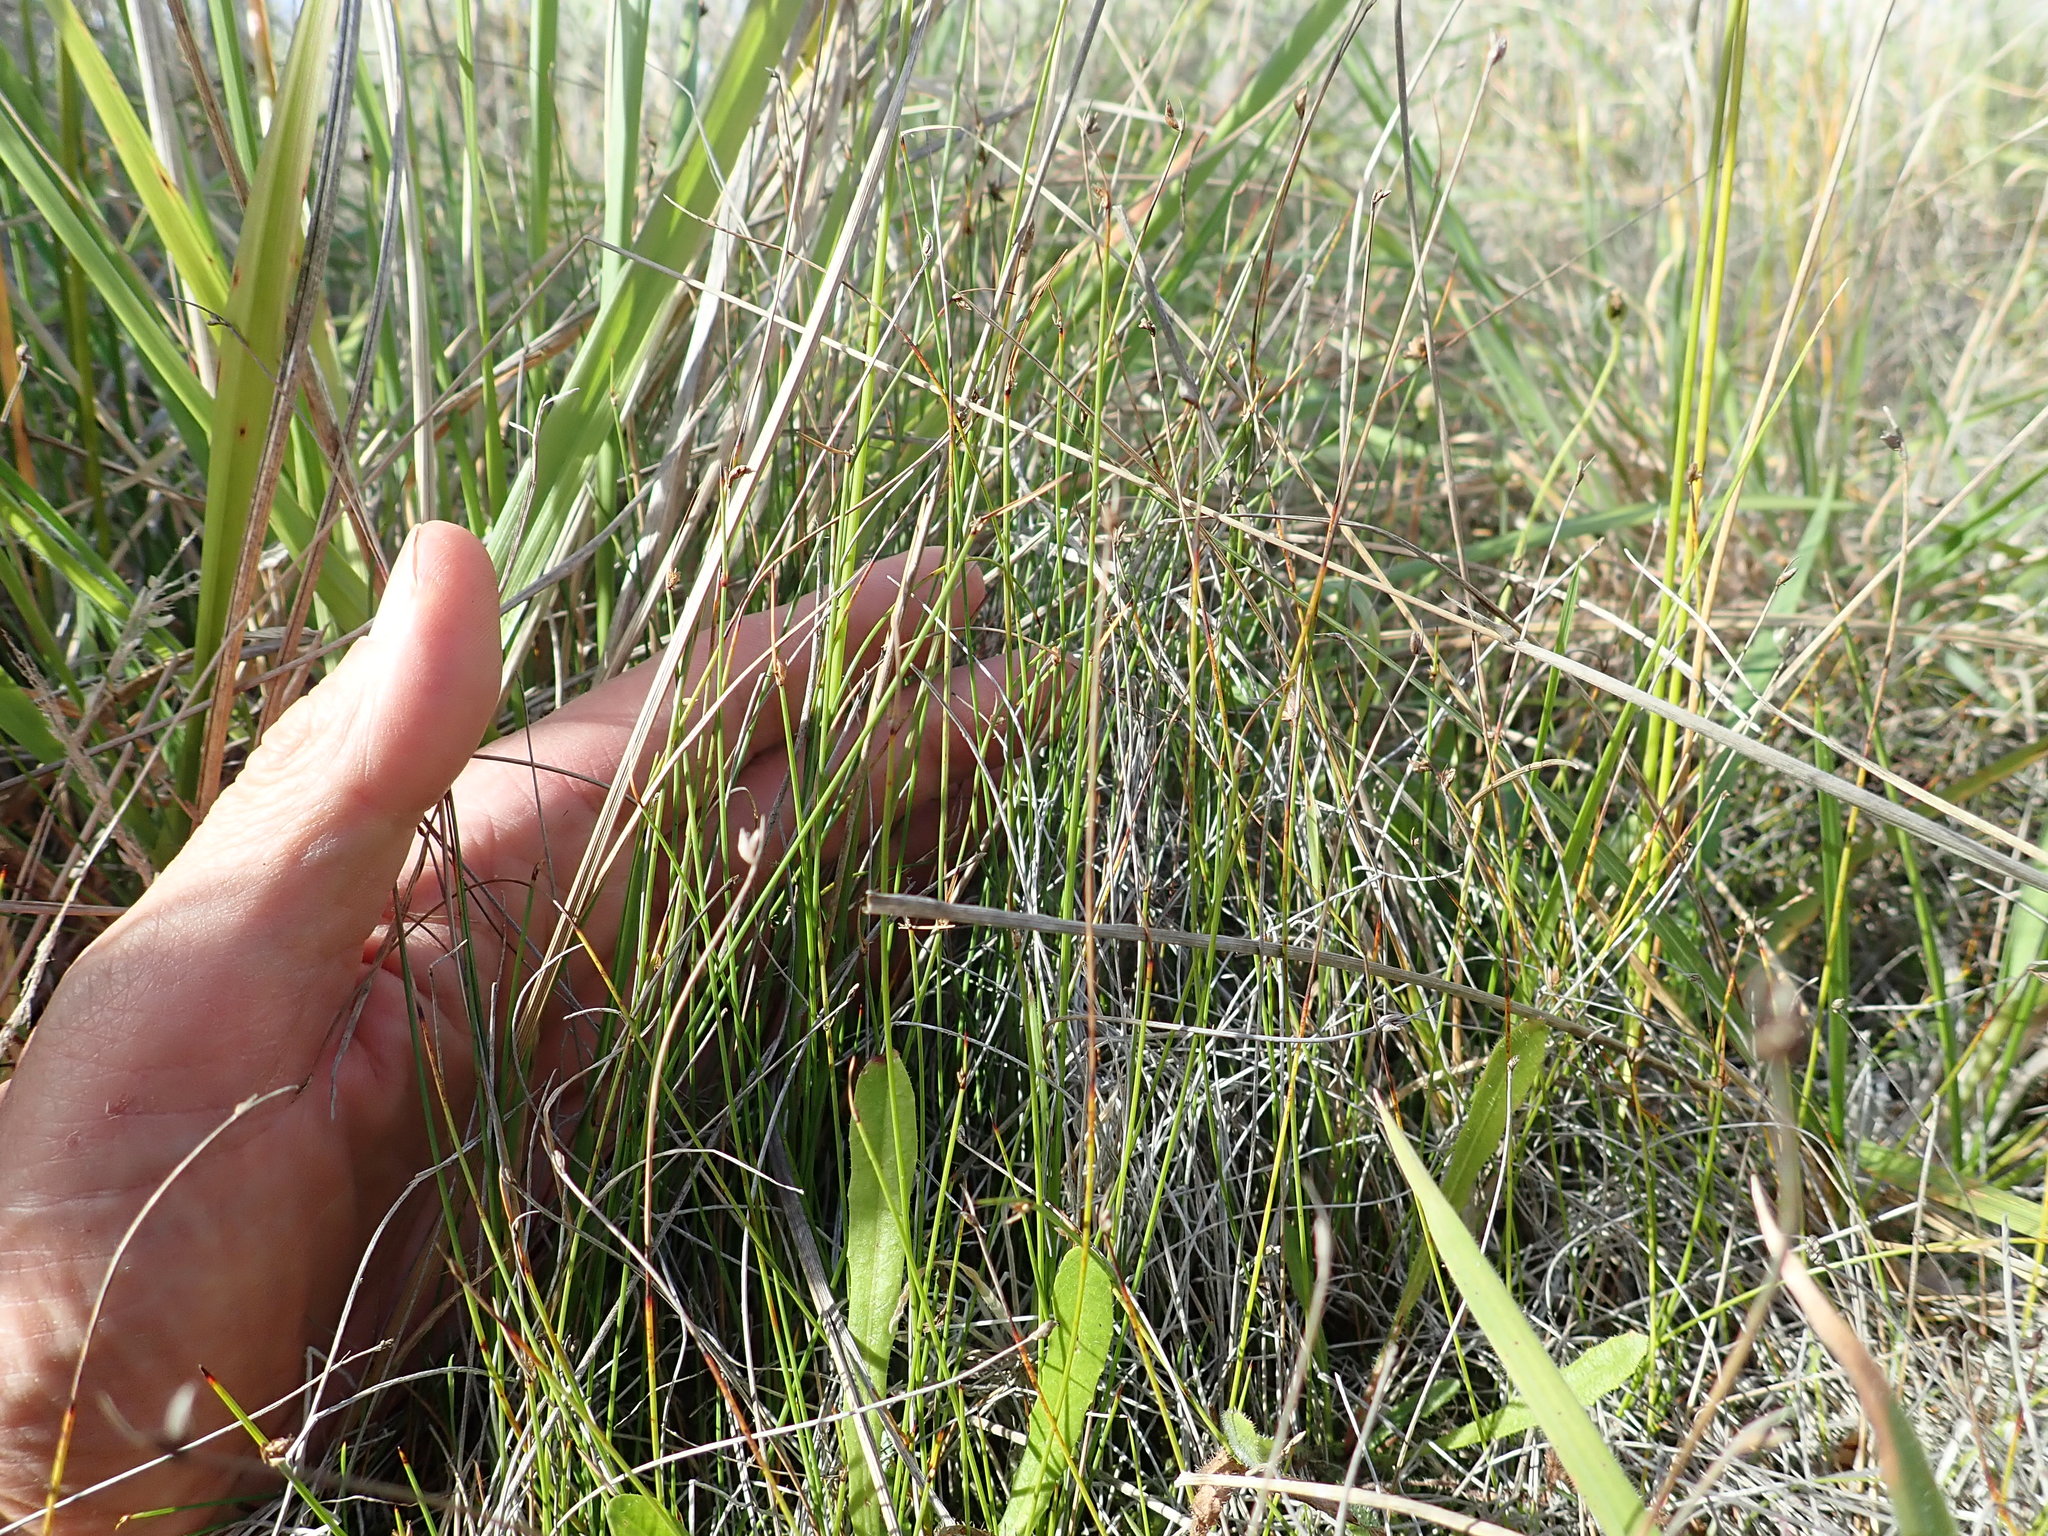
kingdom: Plantae
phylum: Tracheophyta
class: Liliopsida
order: Poales
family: Cyperaceae
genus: Schoenus
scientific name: Schoenus nitens
